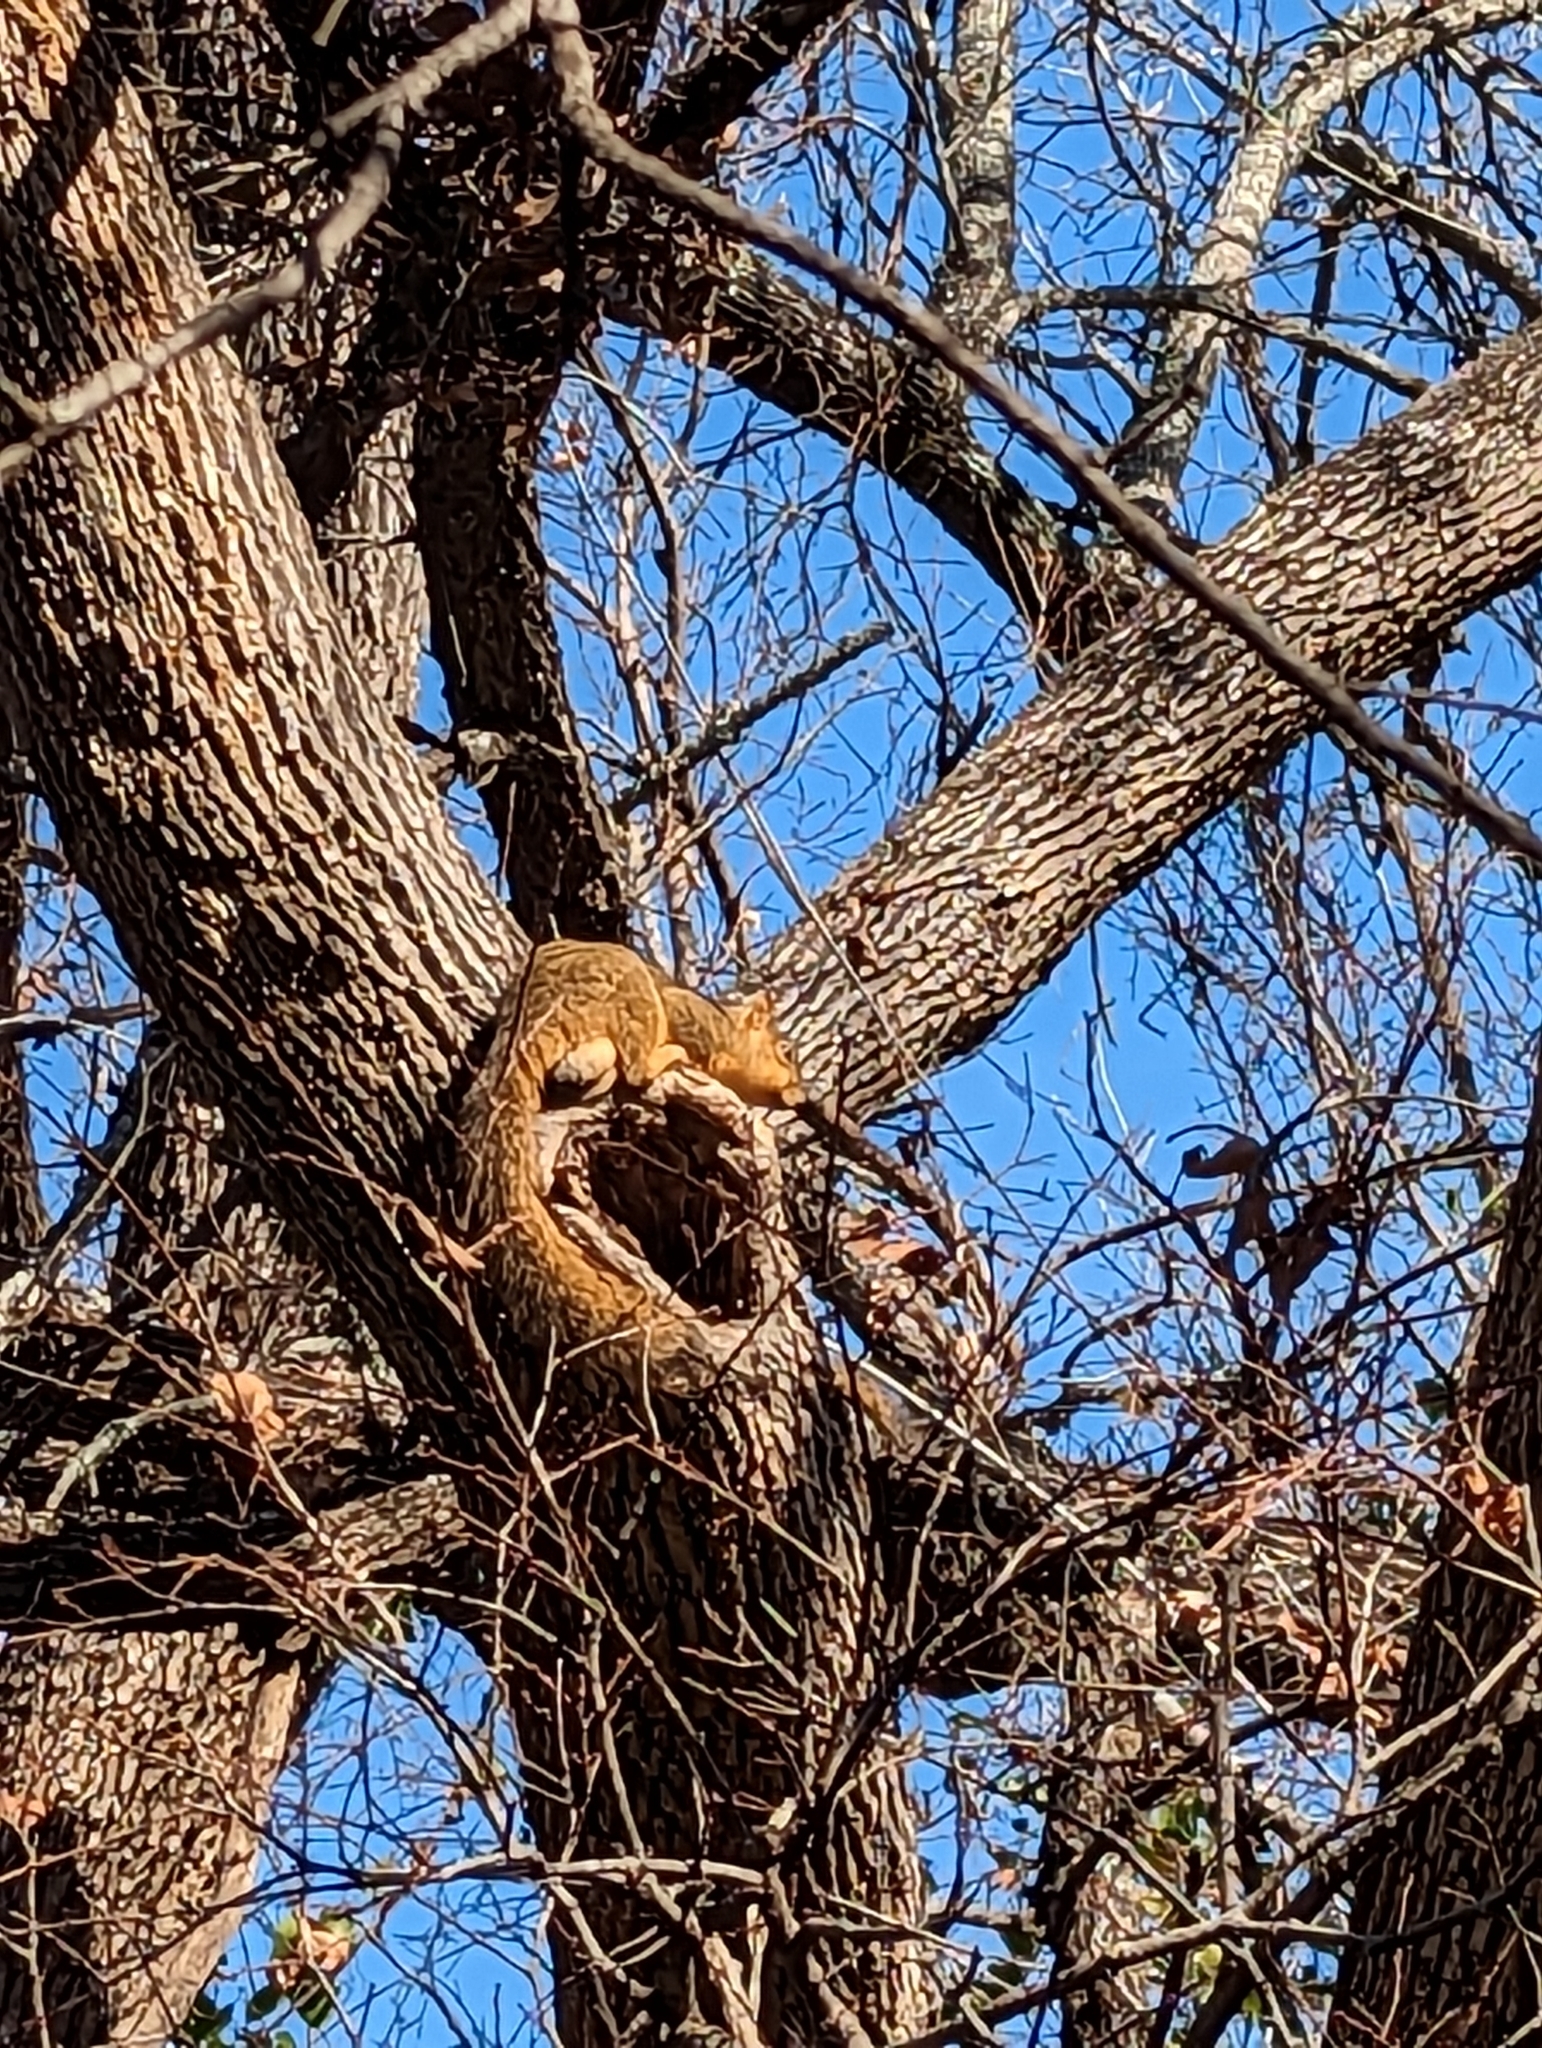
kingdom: Animalia
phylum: Chordata
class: Mammalia
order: Rodentia
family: Sciuridae
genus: Sciurus
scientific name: Sciurus niger
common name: Fox squirrel
